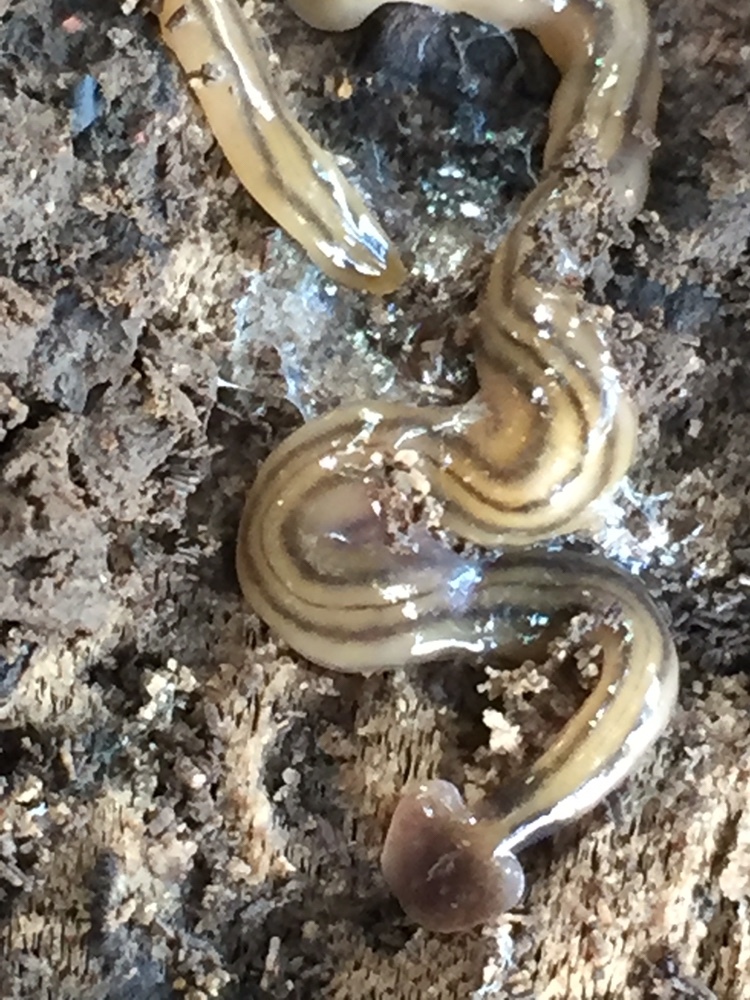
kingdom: Animalia
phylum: Platyhelminthes
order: Tricladida
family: Geoplanidae
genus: Bipalium
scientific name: Bipalium kewense
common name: Hammerhead flatworm
